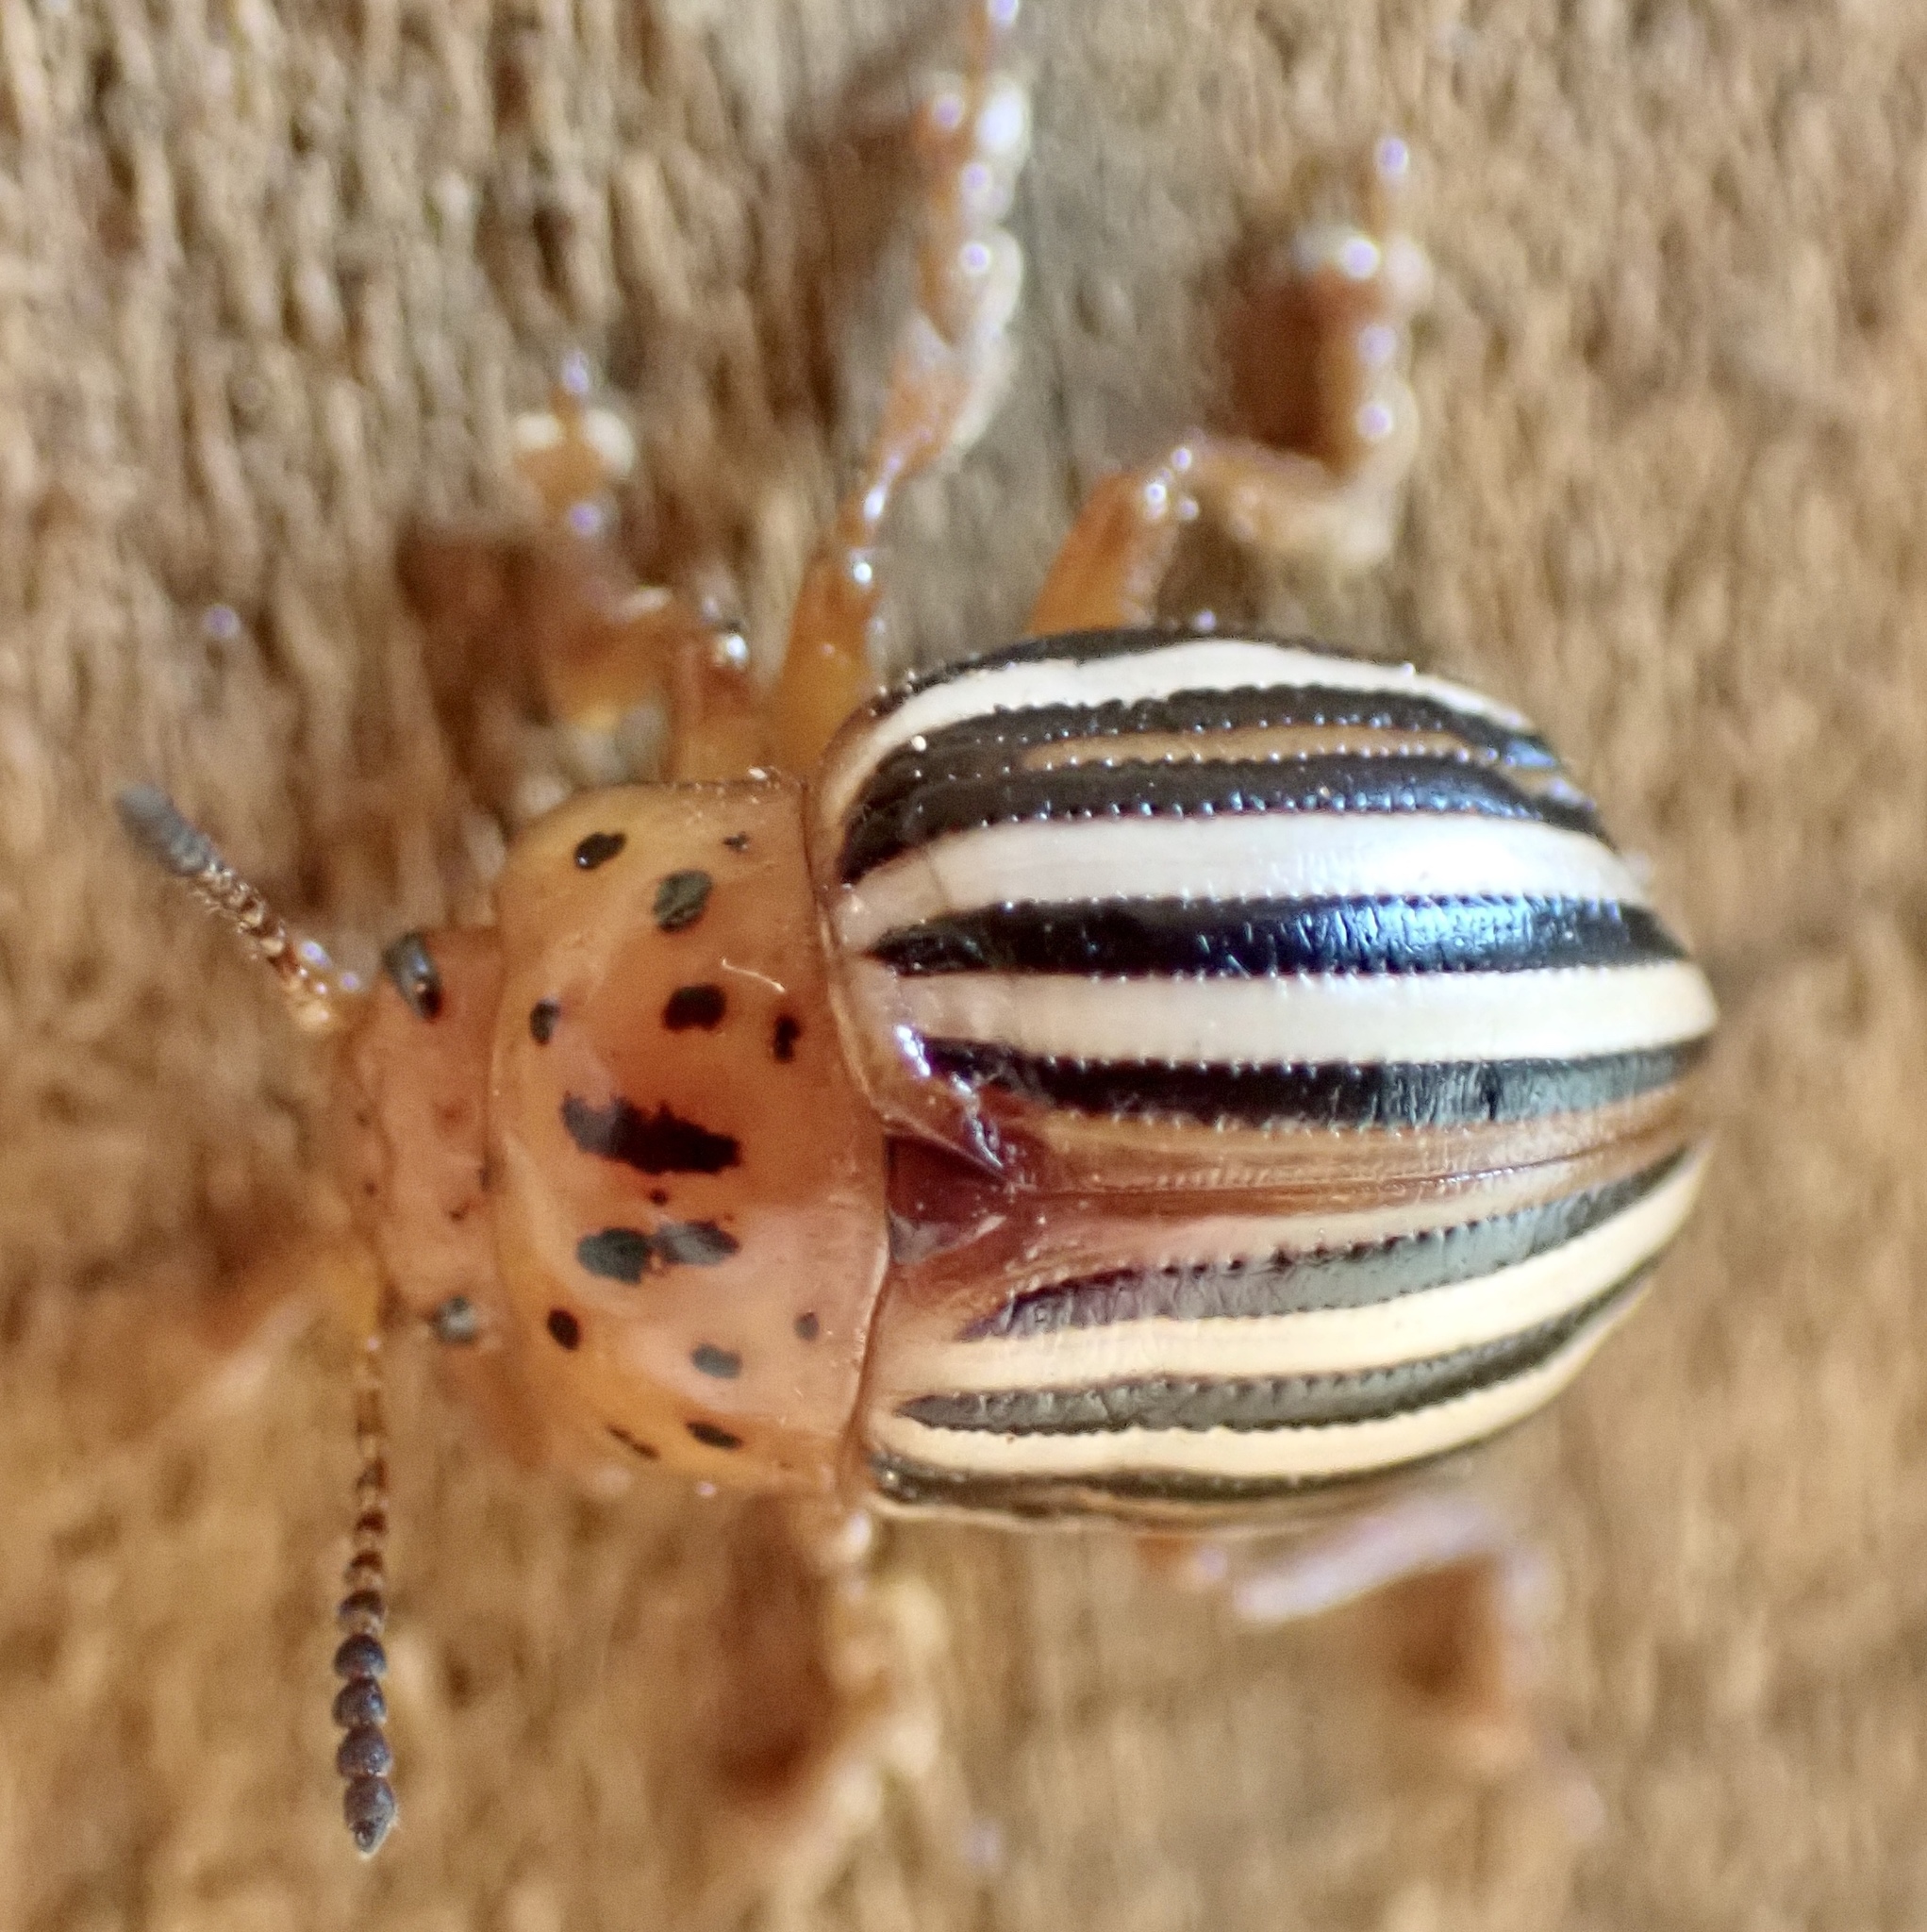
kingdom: Animalia
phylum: Arthropoda
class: Insecta
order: Coleoptera
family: Chrysomelidae
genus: Leptinotarsa
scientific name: Leptinotarsa juncta
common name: False potato beetle
